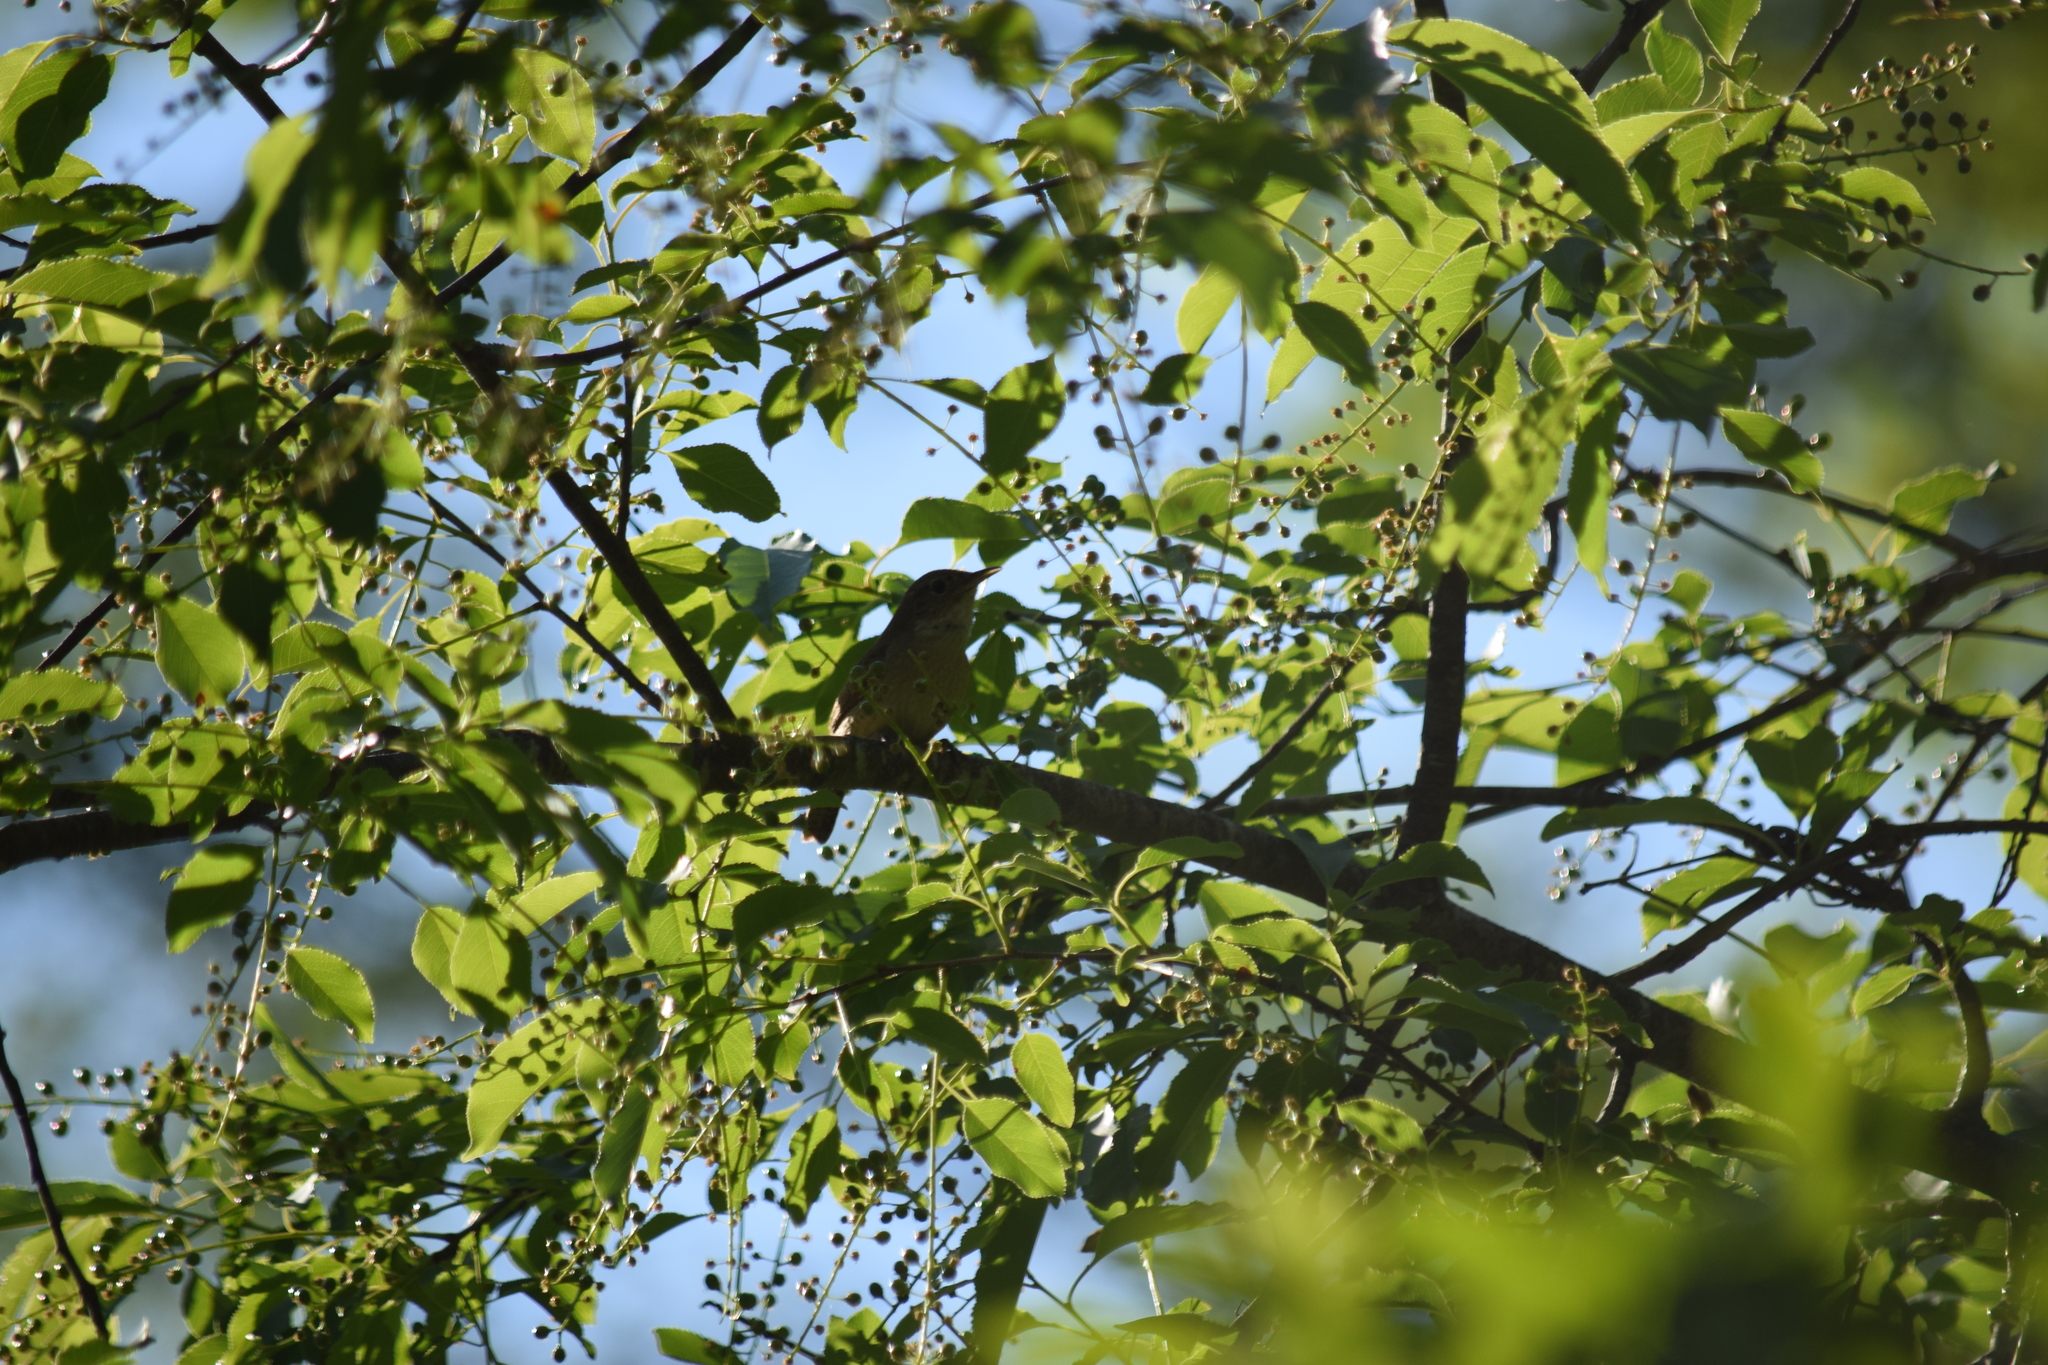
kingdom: Animalia
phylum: Chordata
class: Aves
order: Passeriformes
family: Troglodytidae
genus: Troglodytes
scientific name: Troglodytes aedon
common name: House wren
